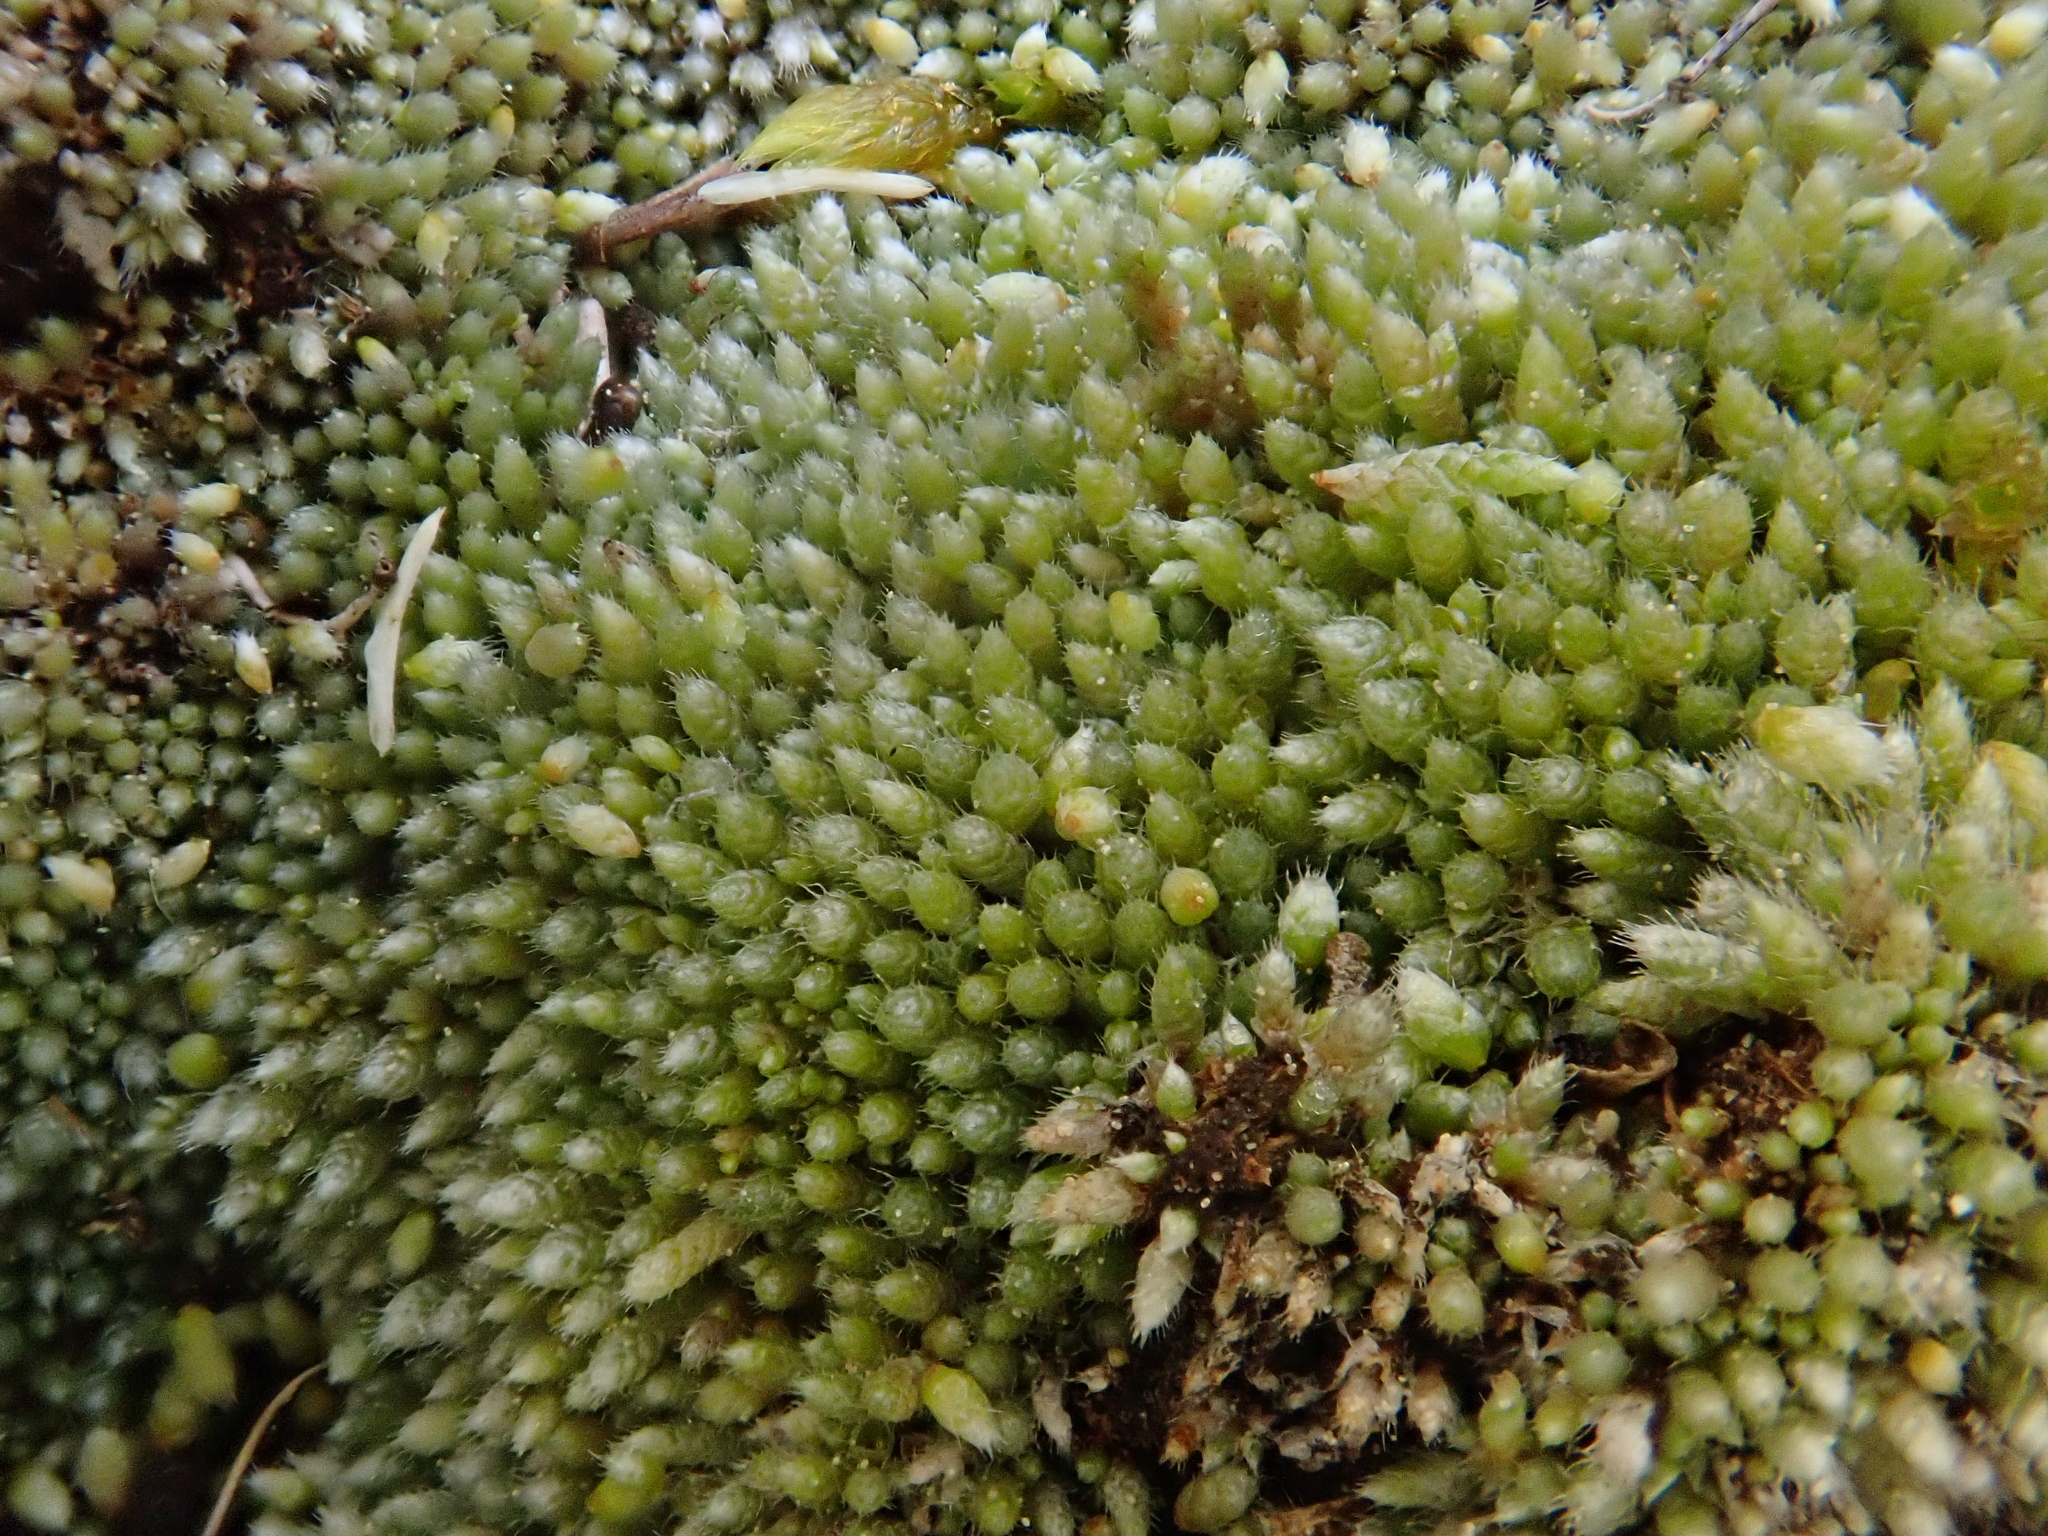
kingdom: Plantae
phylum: Bryophyta
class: Bryopsida
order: Bryales
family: Bryaceae
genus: Bryum
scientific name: Bryum argenteum
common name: Silver-moss
